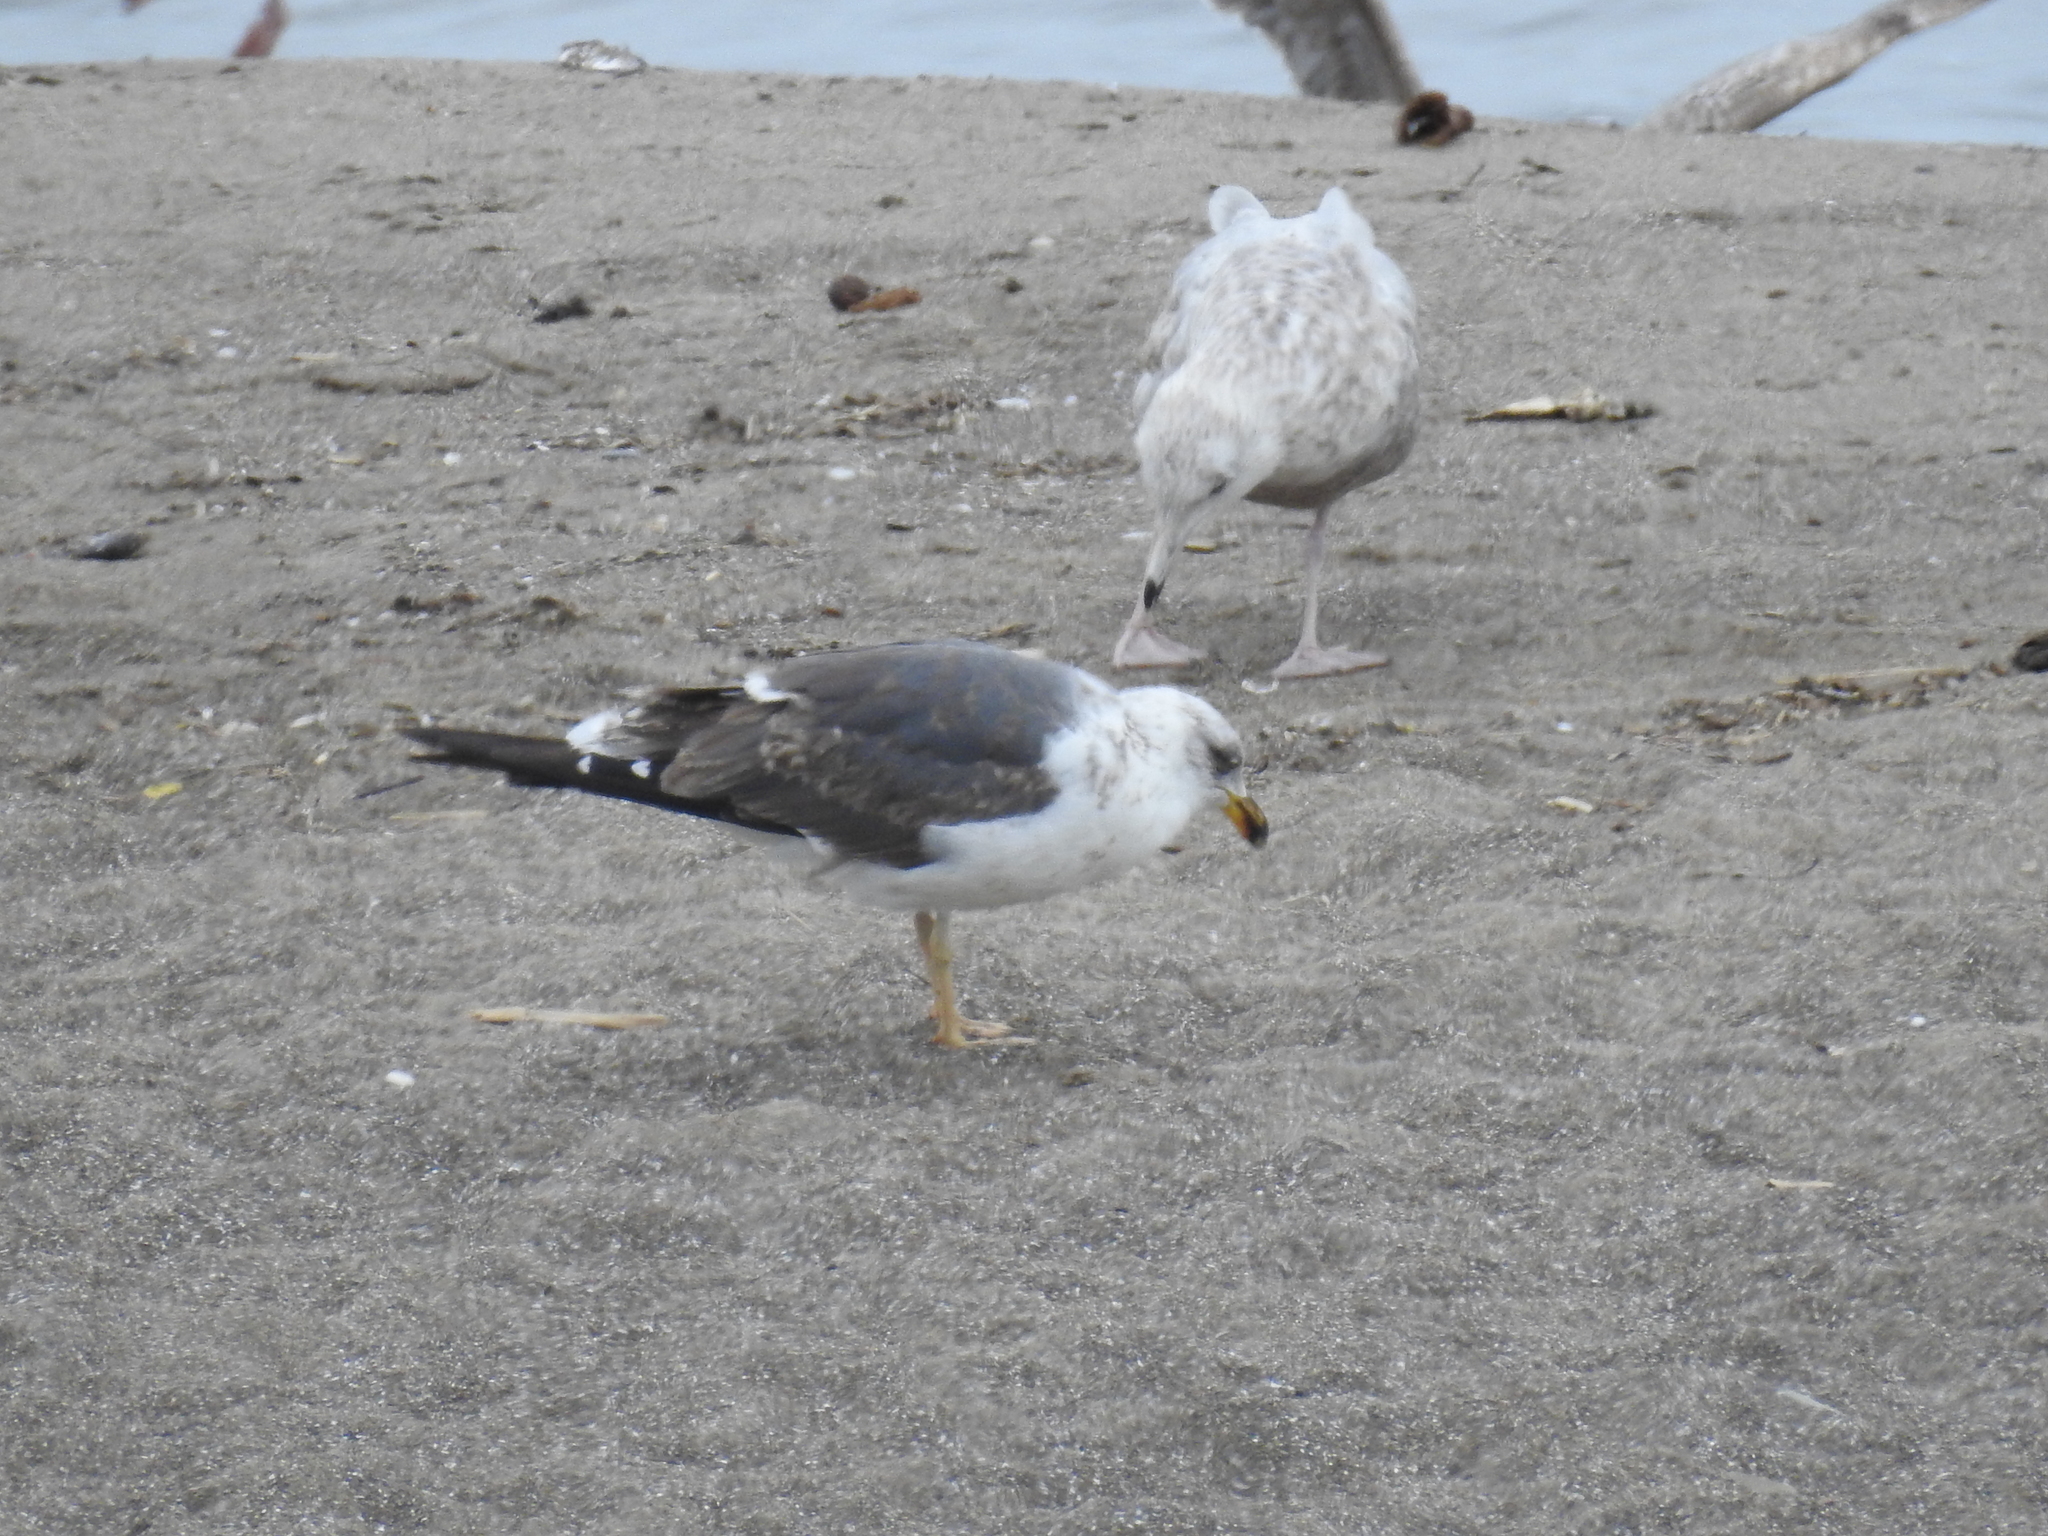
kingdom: Animalia
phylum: Chordata
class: Aves
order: Charadriiformes
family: Laridae
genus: Larus
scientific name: Larus fuscus
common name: Lesser black-backed gull
